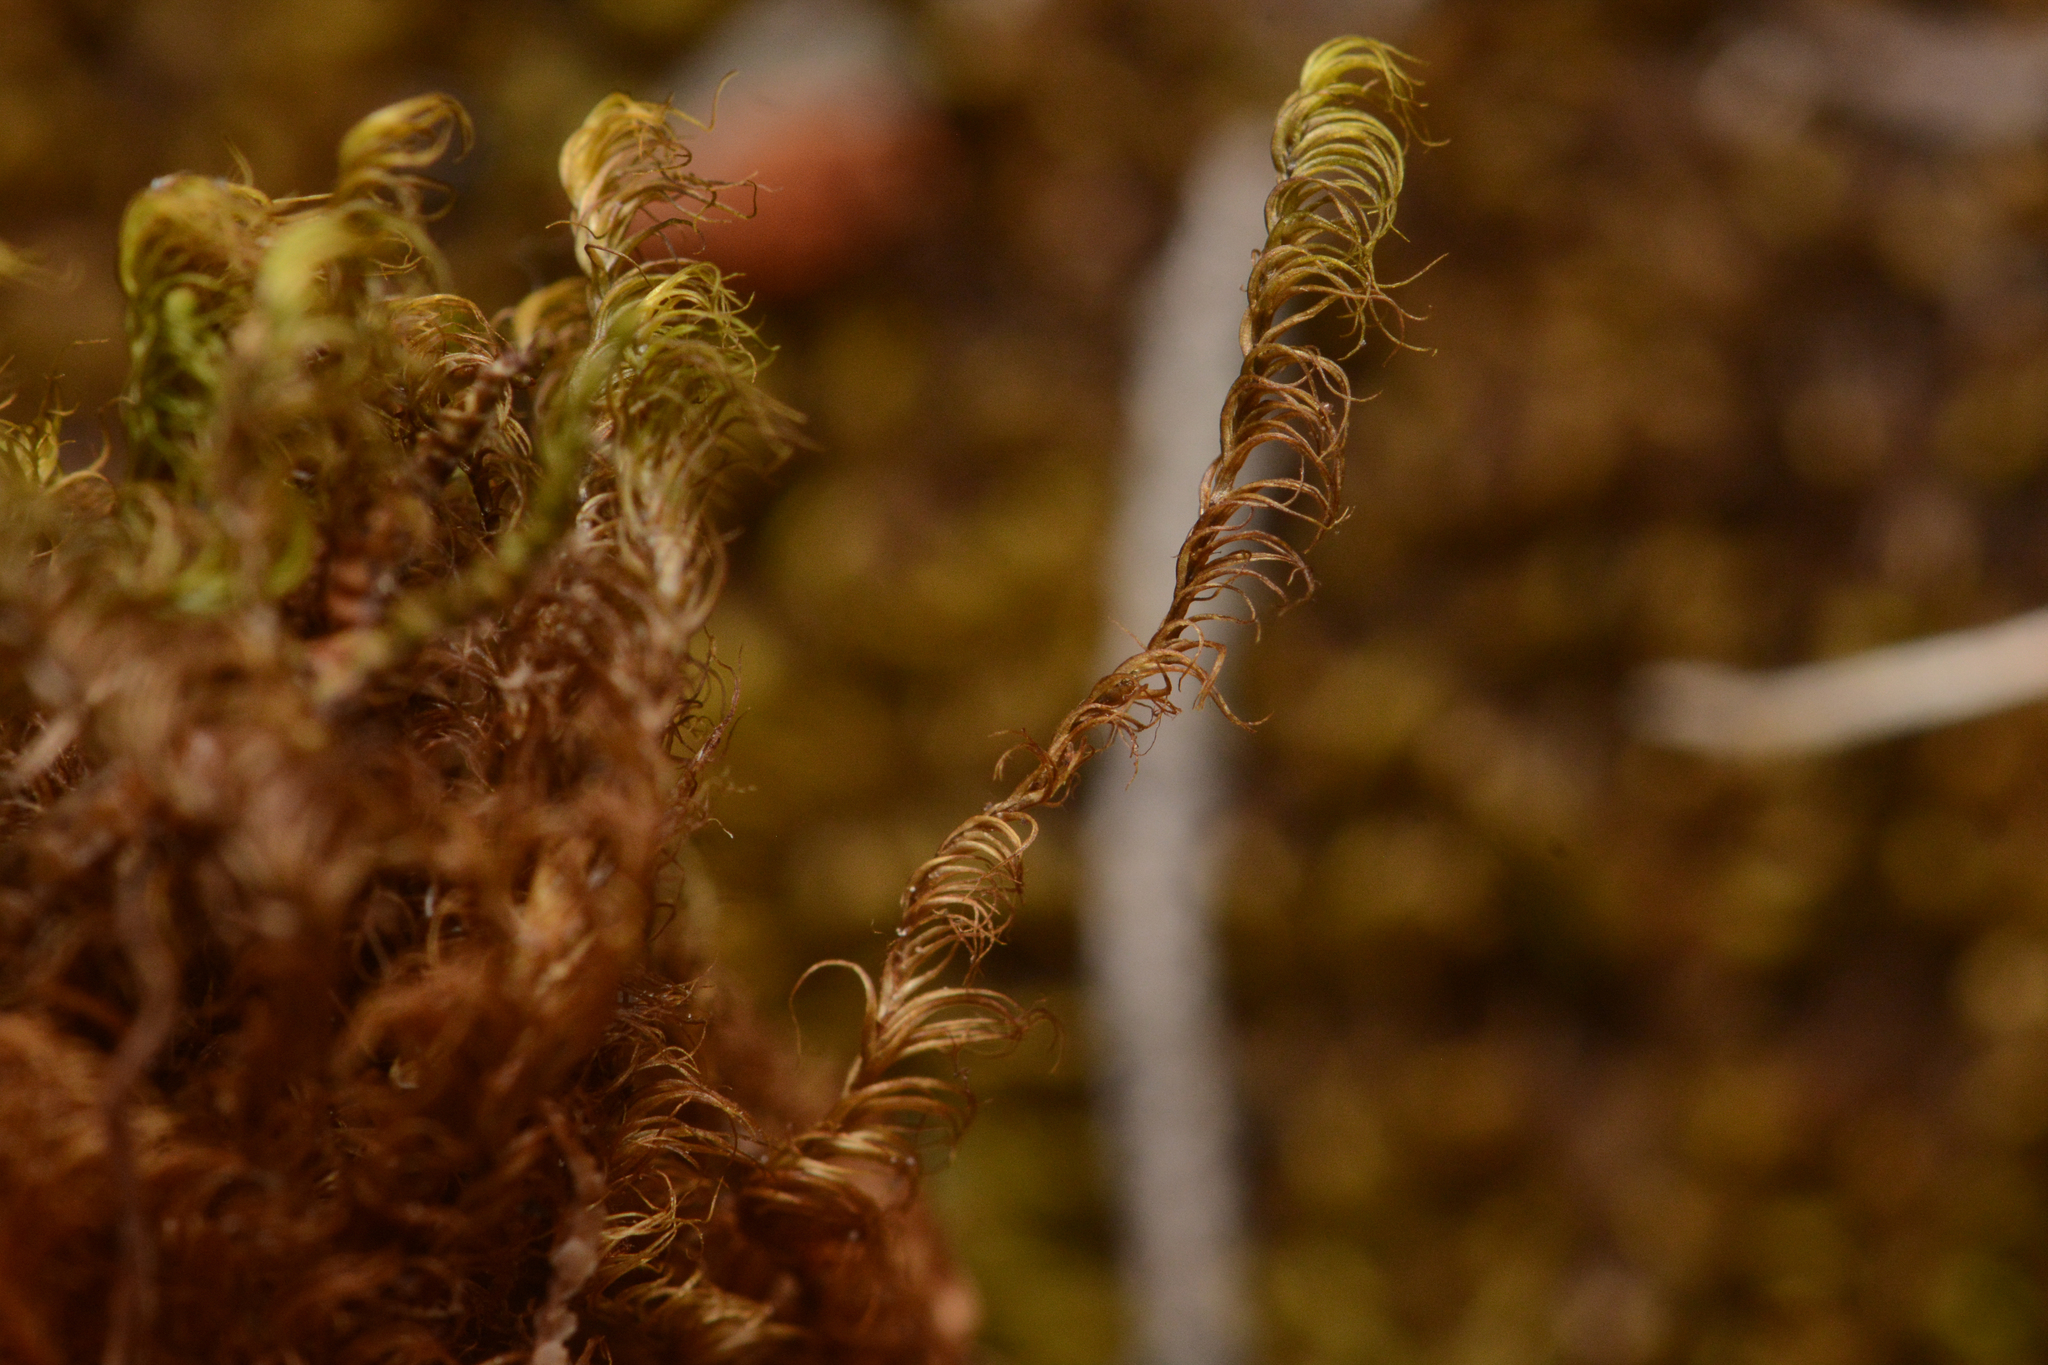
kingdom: Plantae
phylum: Bryophyta
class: Bryopsida
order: Hypnales
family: Scorpidiaceae
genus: Scorpidium
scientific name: Scorpidium revolvens
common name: Rusty hook moss
